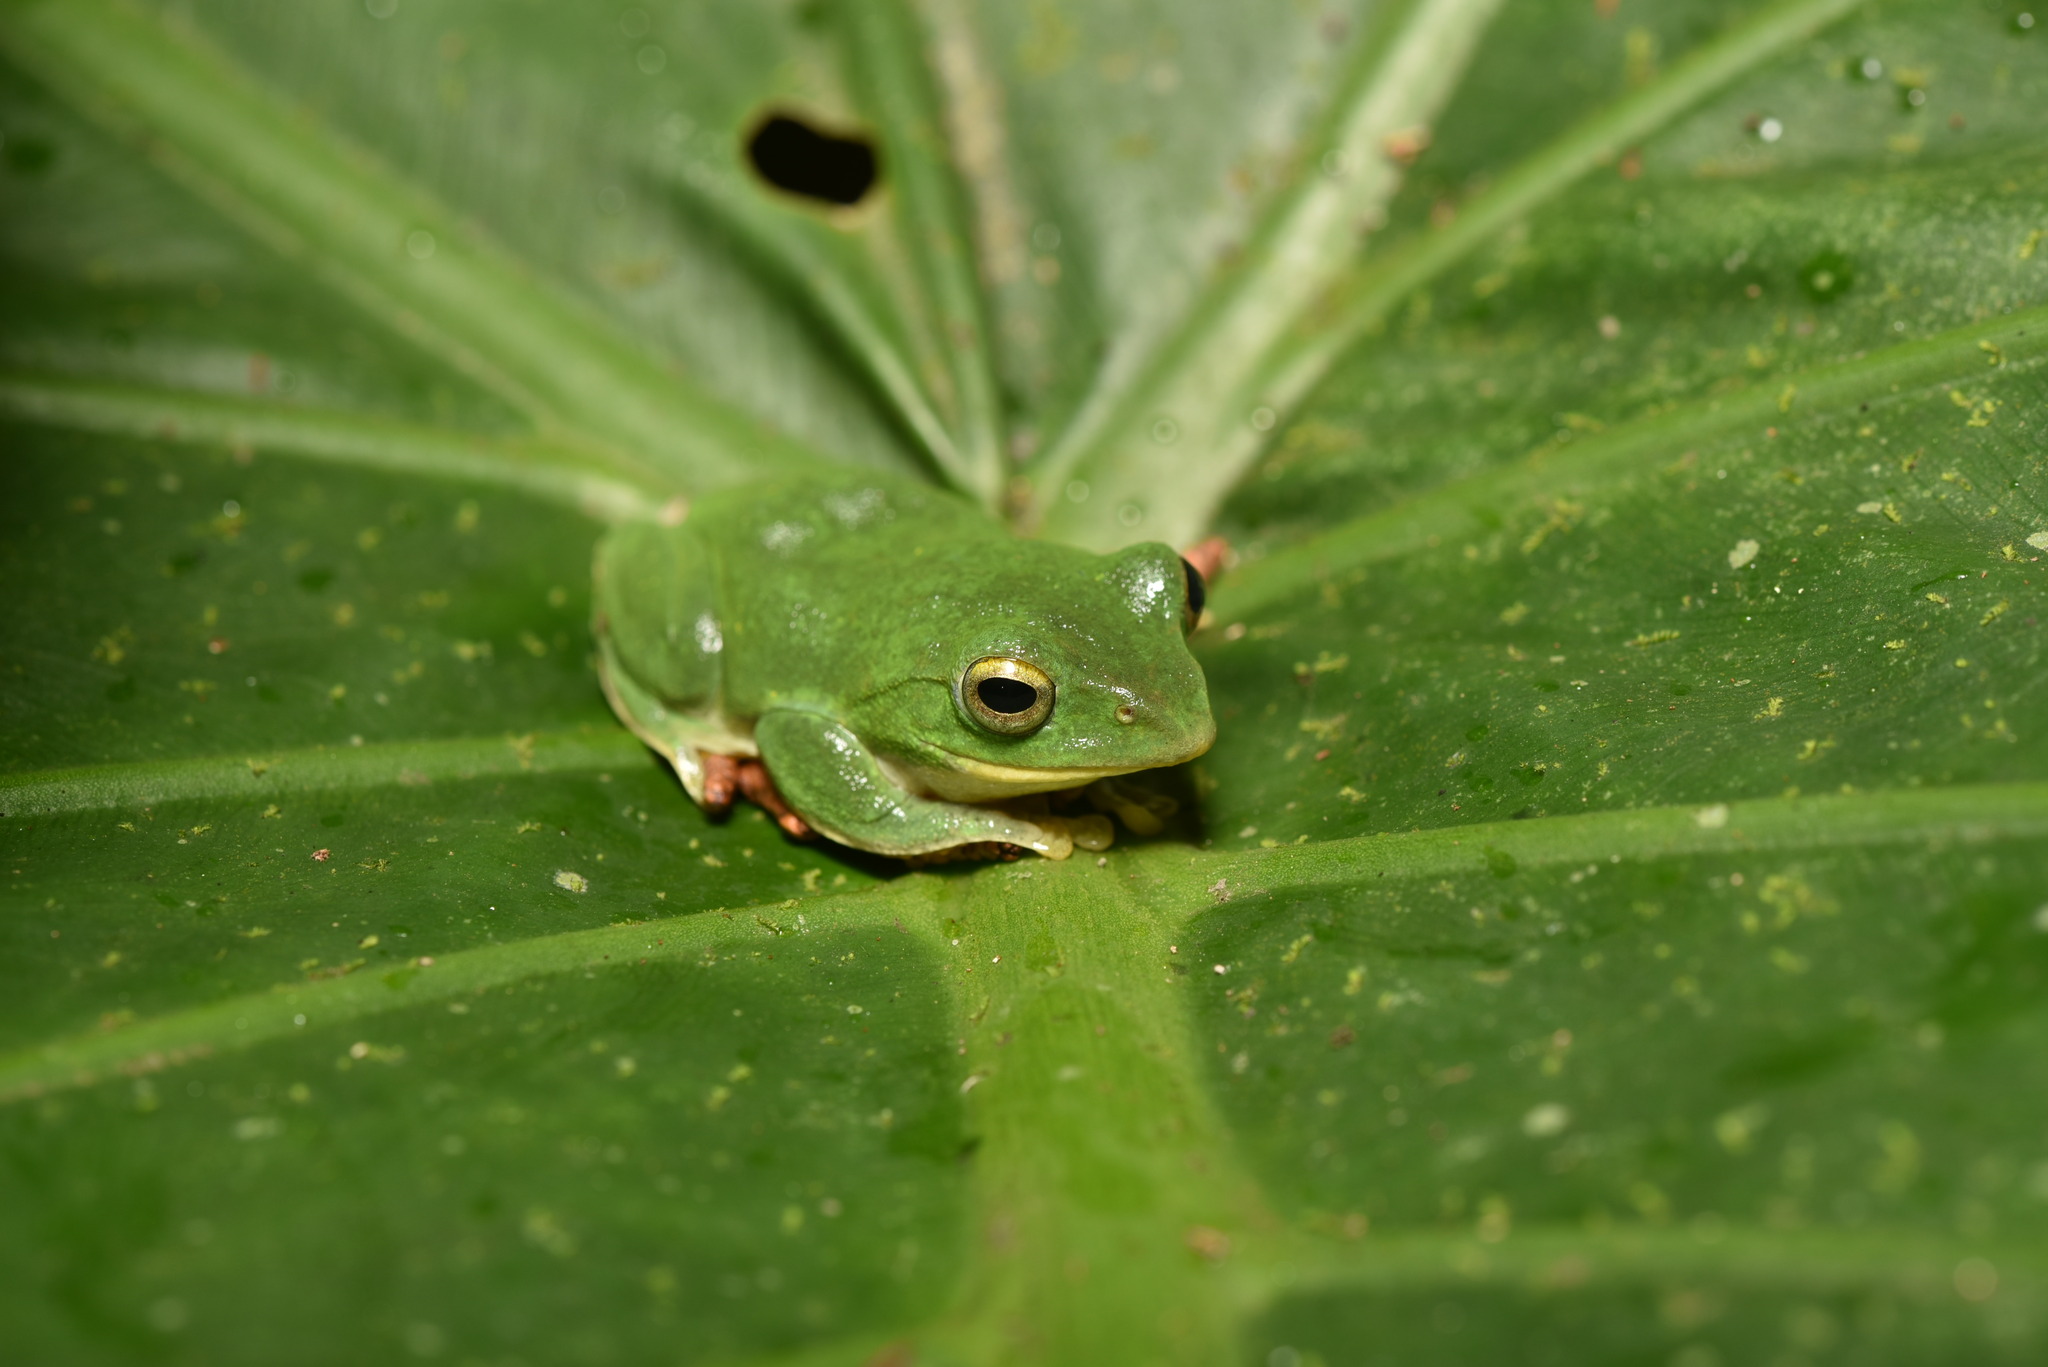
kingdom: Animalia
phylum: Chordata
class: Amphibia
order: Anura
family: Rhacophoridae
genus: Zhangixalus
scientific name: Zhangixalus taipeianus
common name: Taipei flying frog
